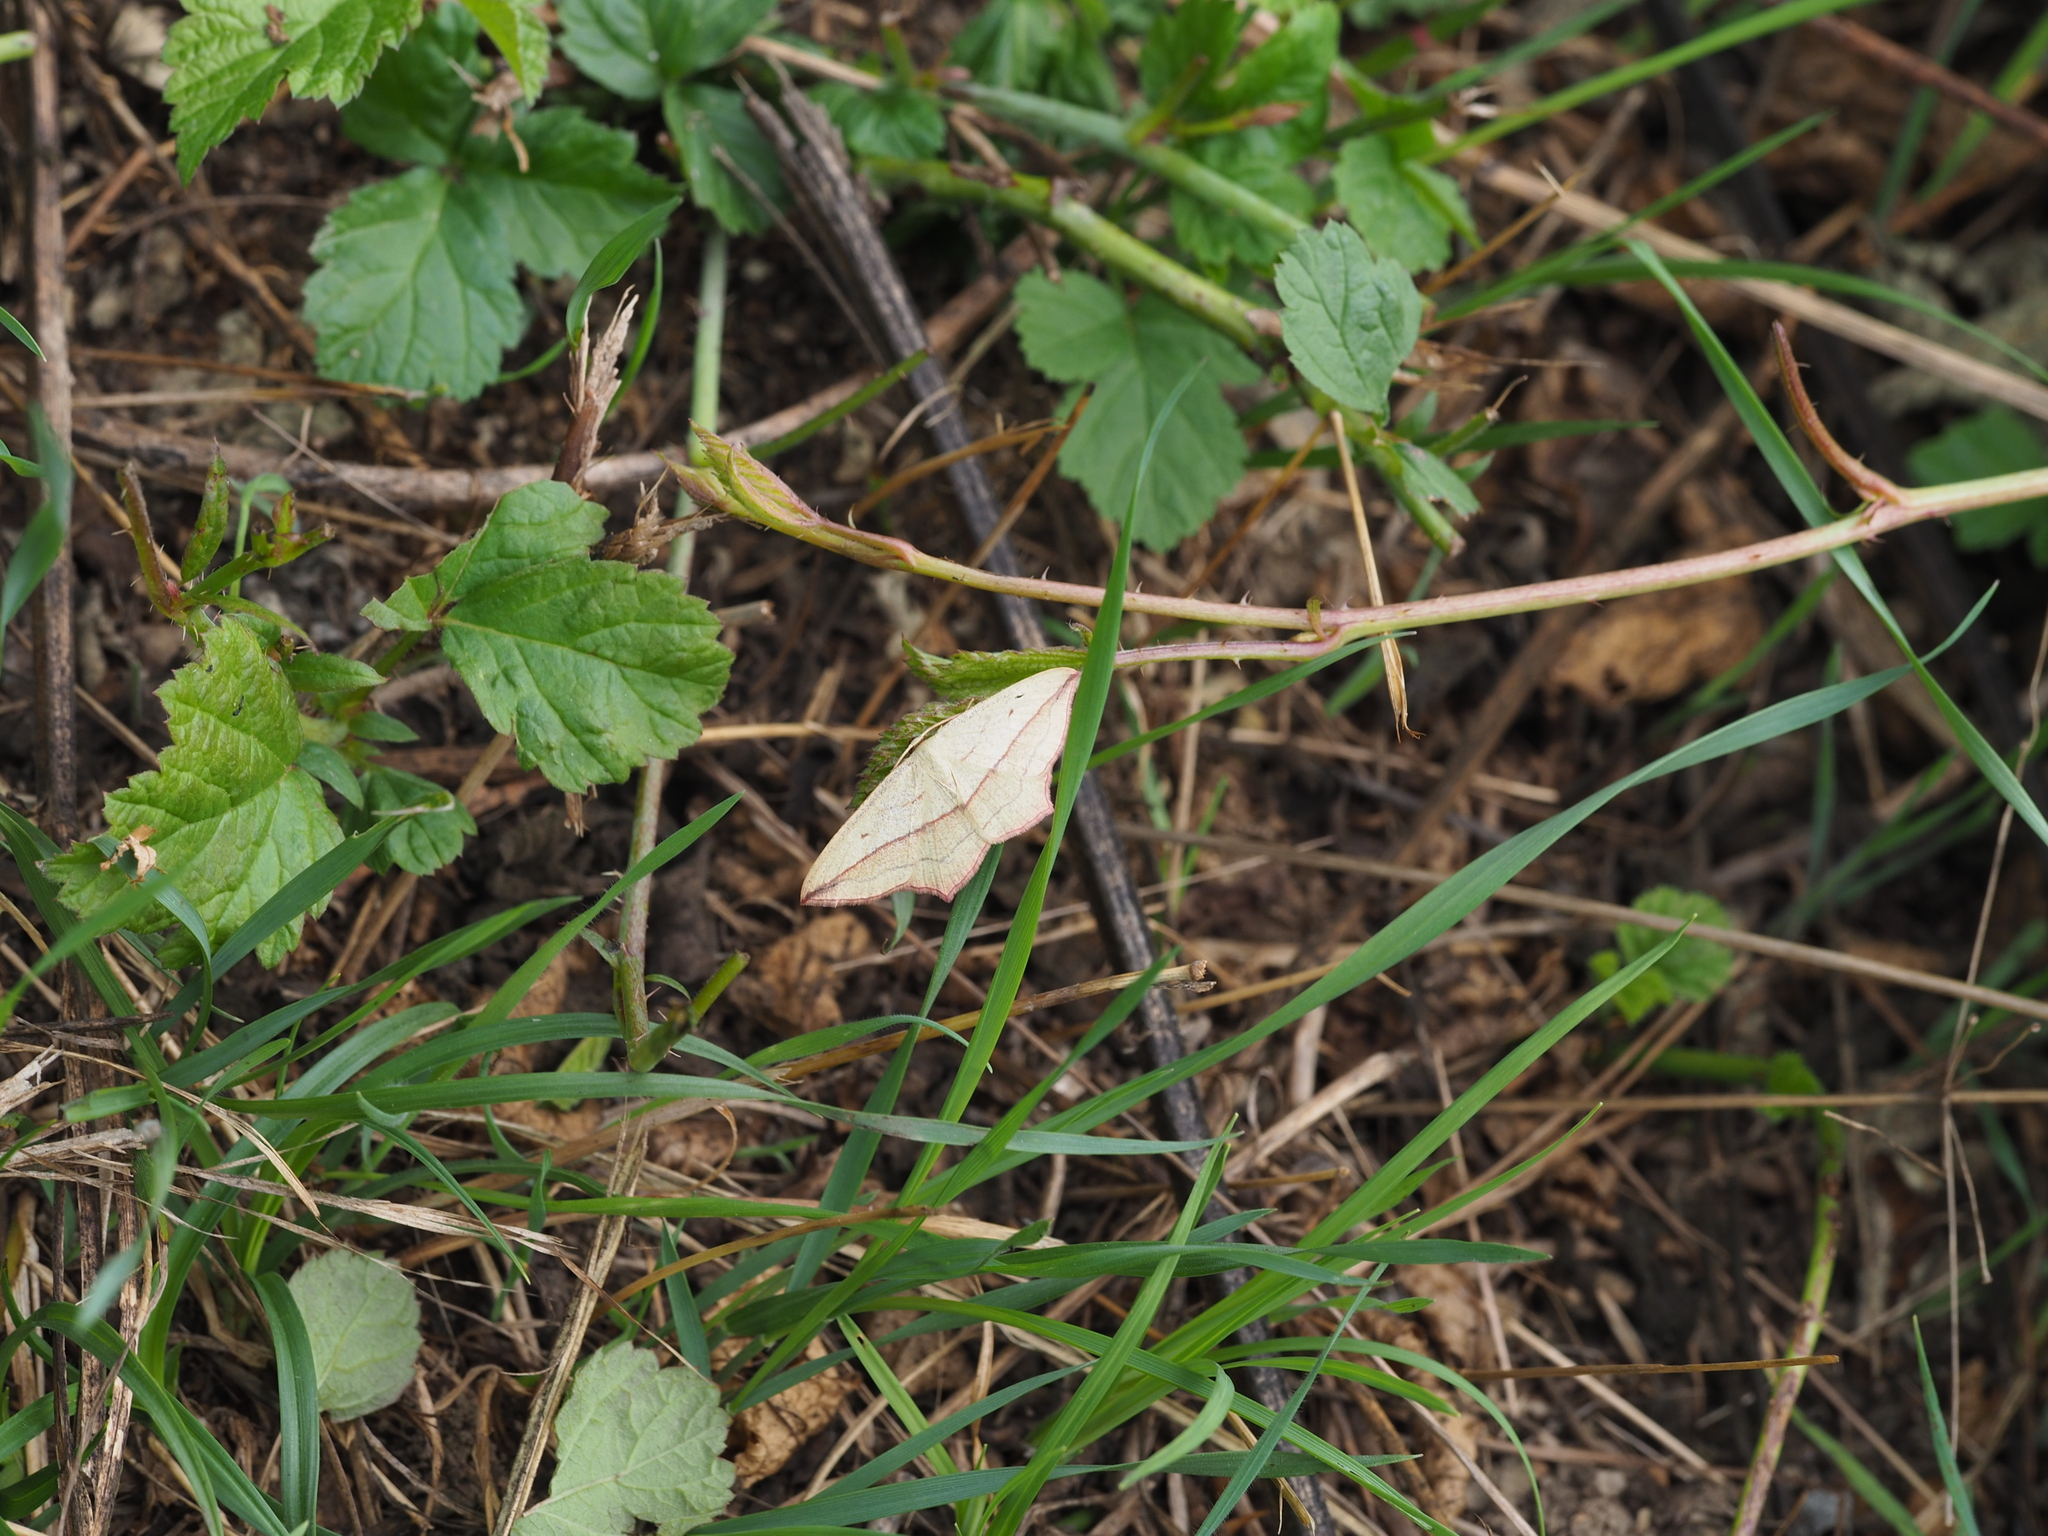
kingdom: Animalia
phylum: Arthropoda
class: Insecta
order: Lepidoptera
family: Geometridae
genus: Timandra
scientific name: Timandra comae
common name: Blood-vein
